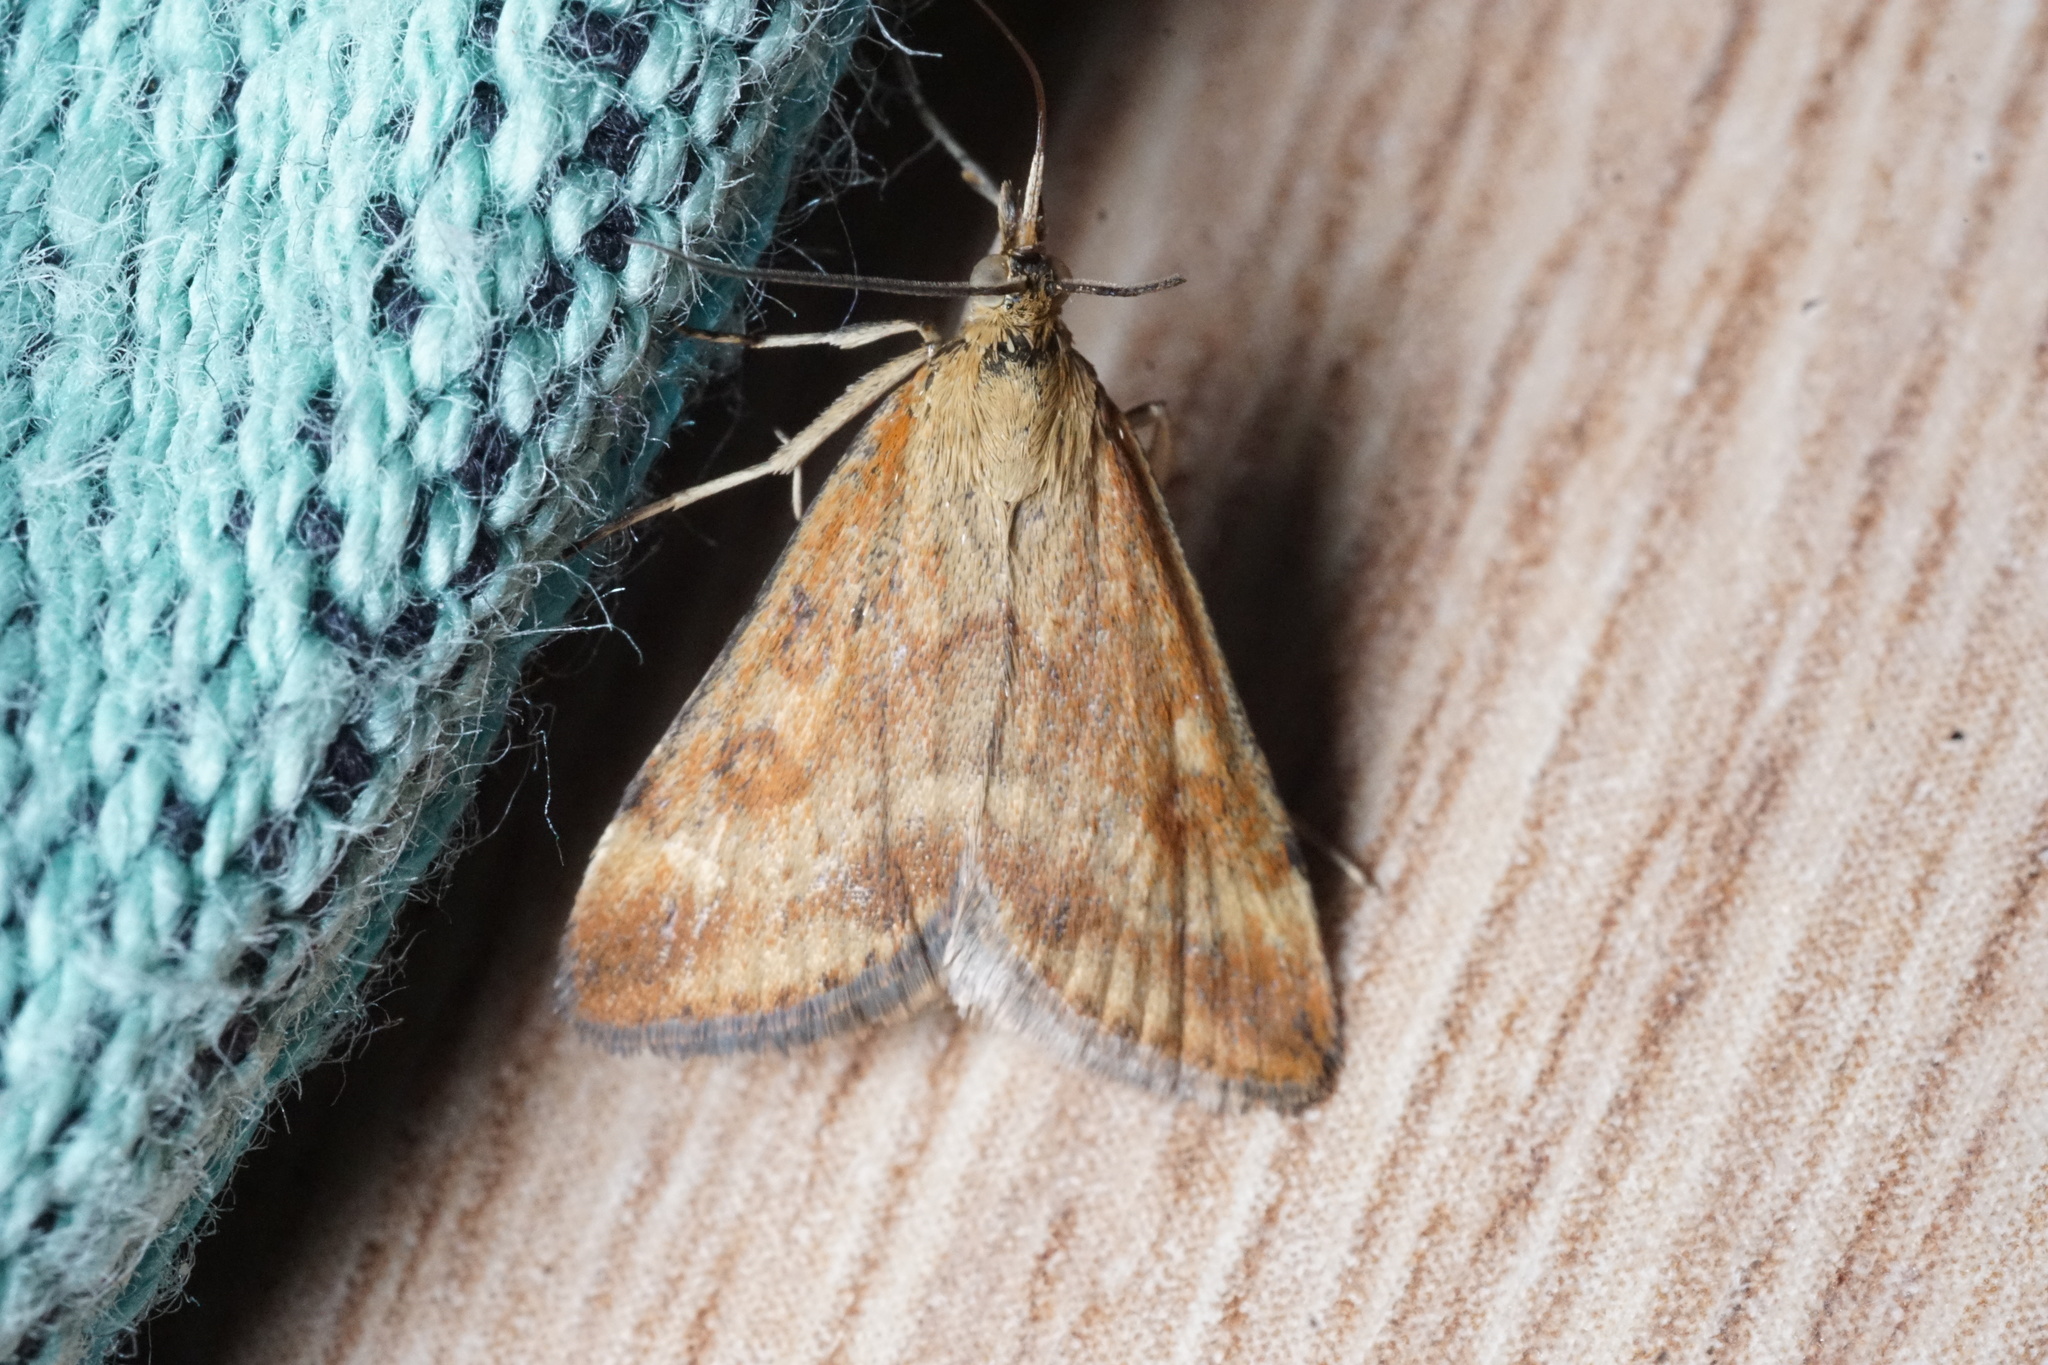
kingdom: Animalia
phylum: Arthropoda
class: Insecta
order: Lepidoptera
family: Crambidae
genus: Pyrausta
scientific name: Pyrausta despicata
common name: Straw-barred pearl
